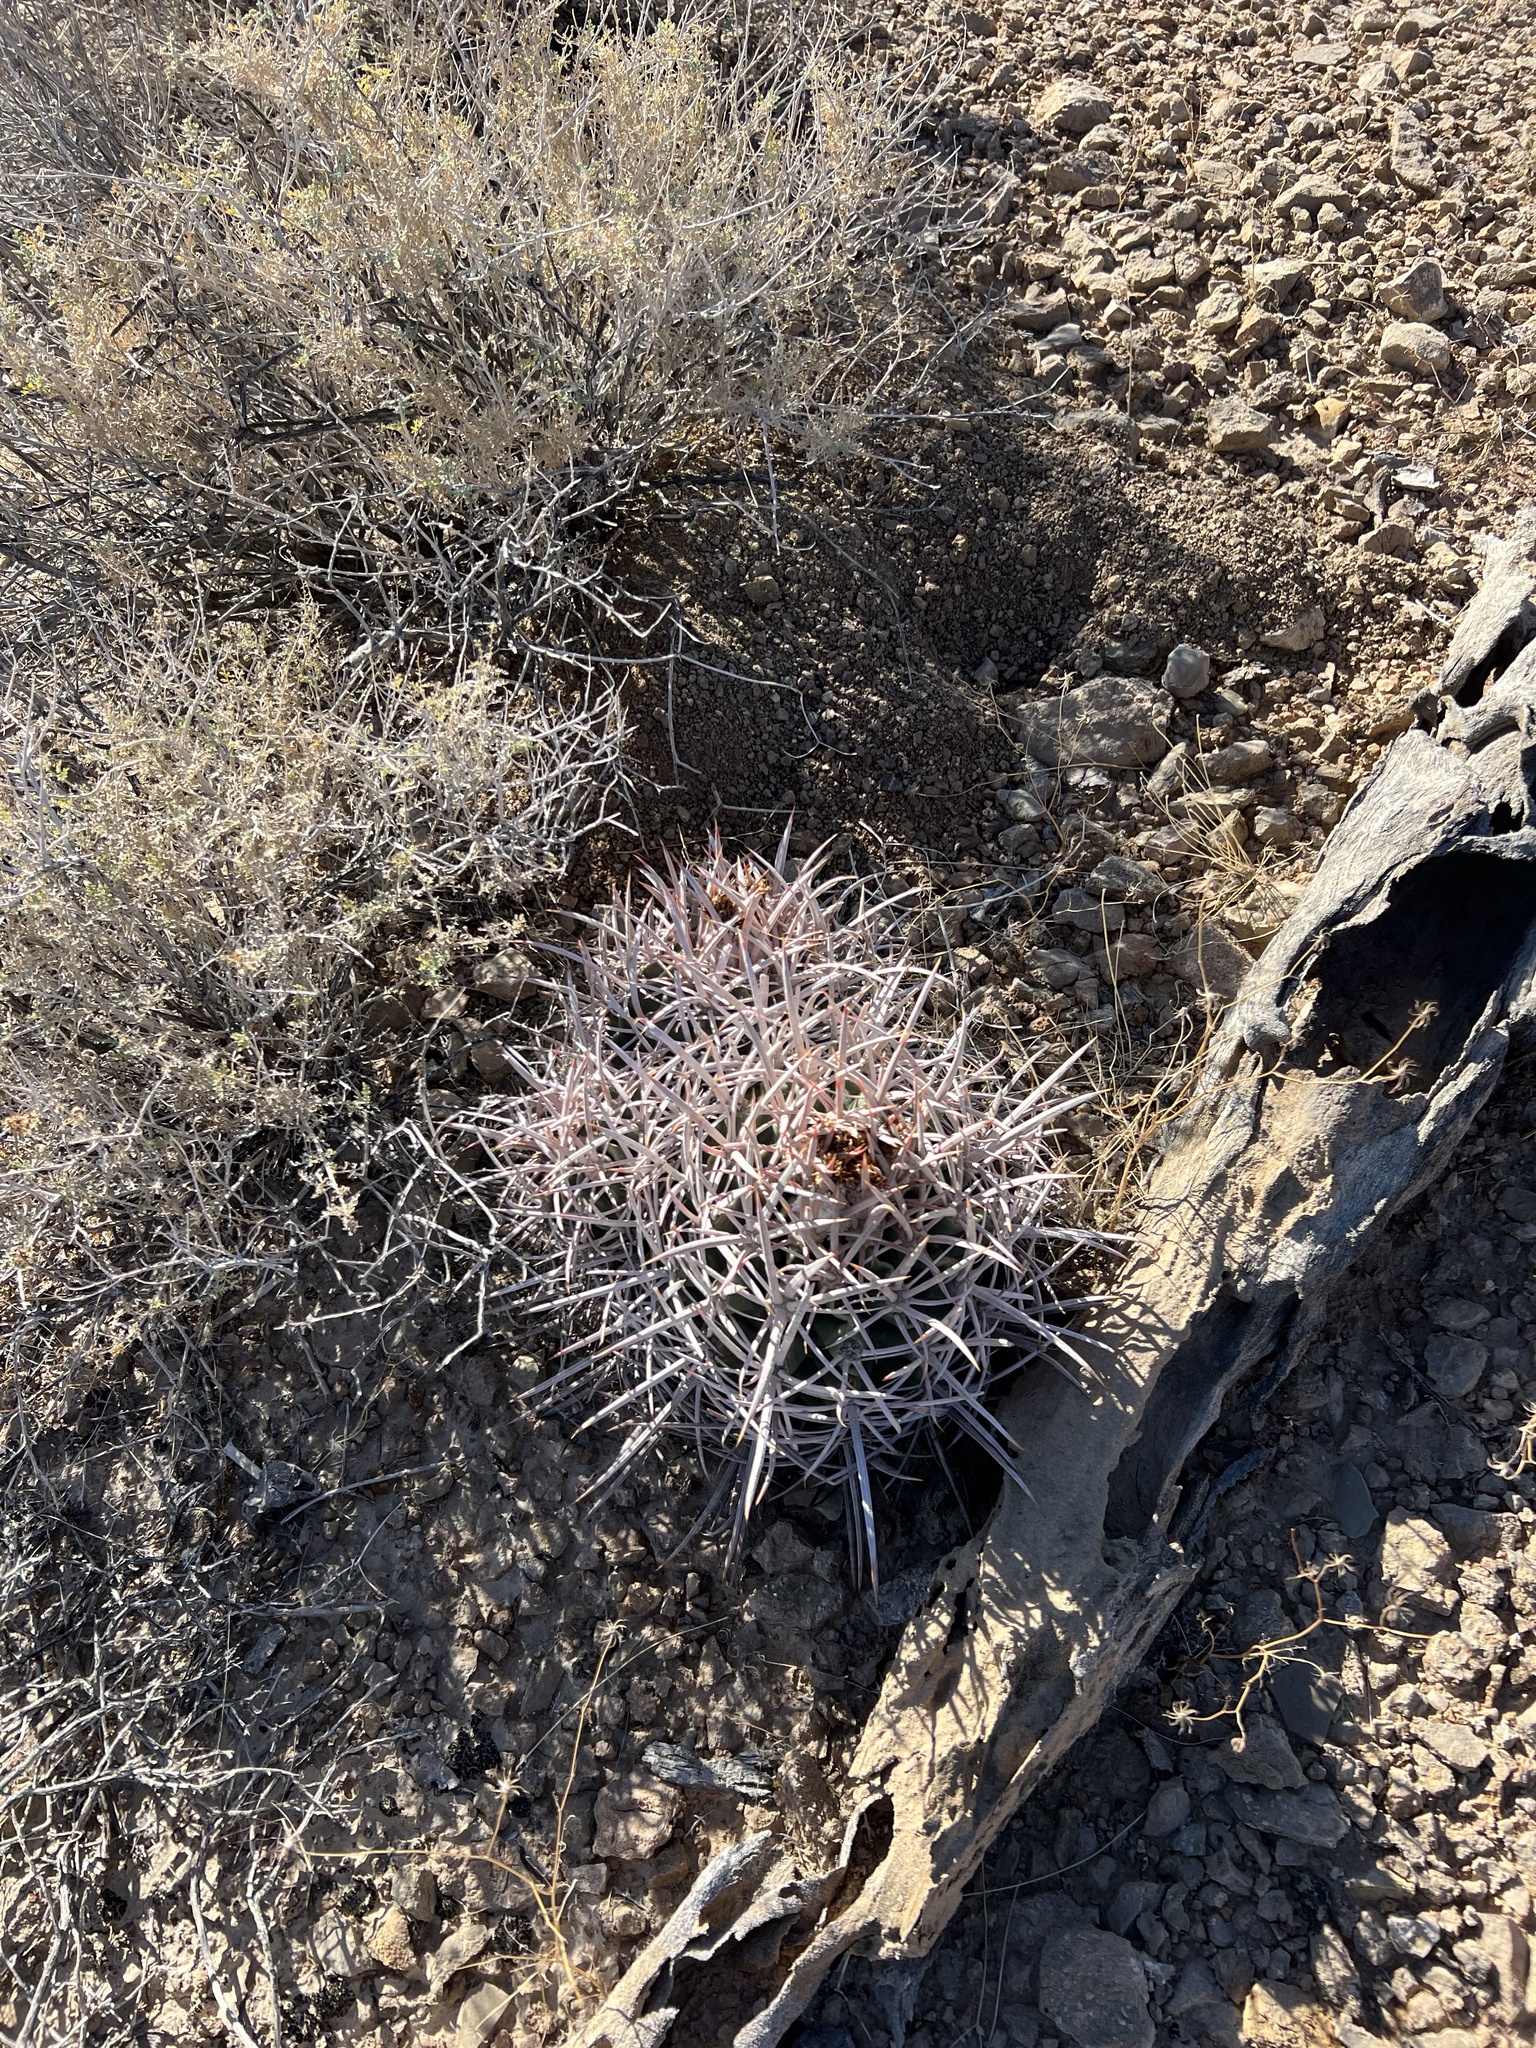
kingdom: Plantae
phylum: Tracheophyta
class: Magnoliopsida
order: Caryophyllales
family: Cactaceae
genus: Echinocactus
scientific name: Echinocactus polycephalus
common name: Cottontop cactus
